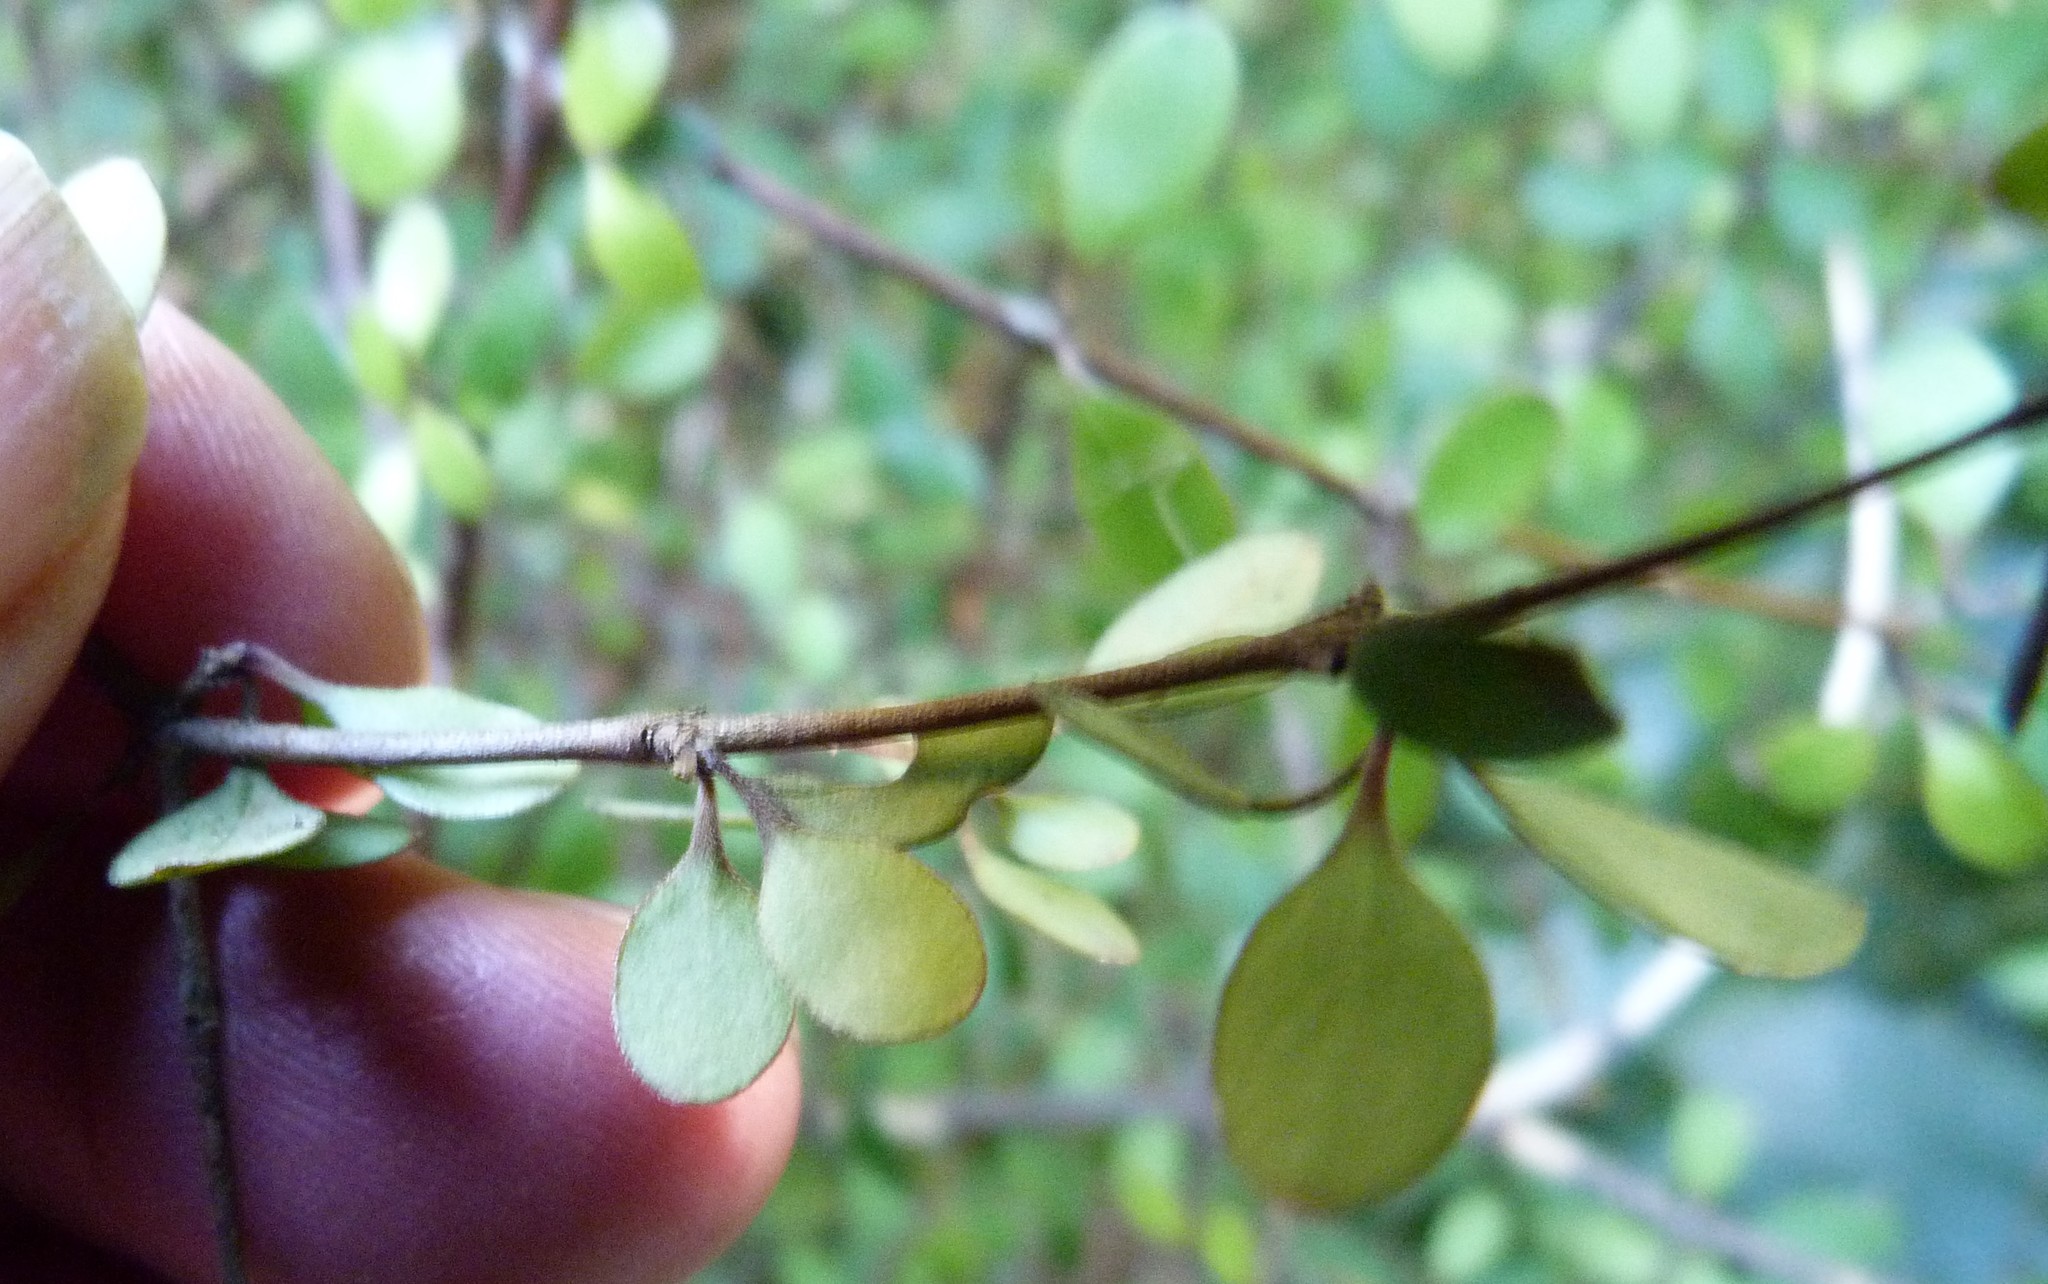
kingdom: Plantae
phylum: Tracheophyta
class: Magnoliopsida
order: Gentianales
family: Rubiaceae
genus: Coprosma
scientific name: Coprosma crassifolia
